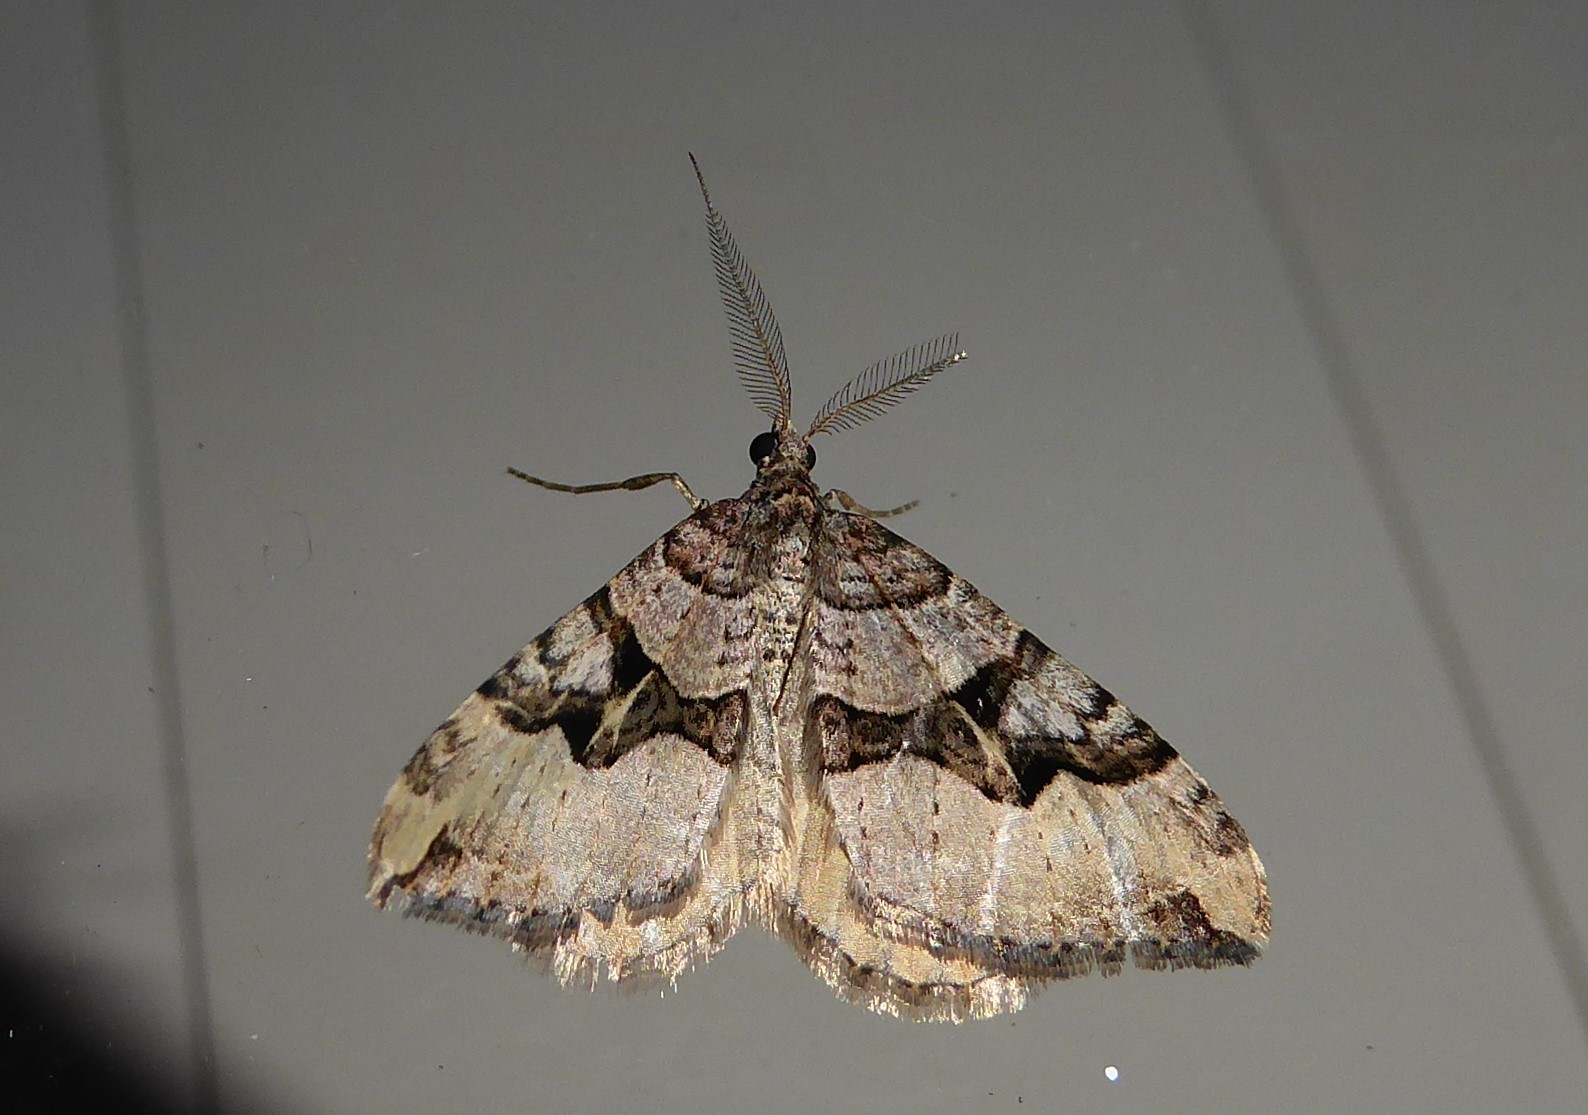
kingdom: Animalia
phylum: Arthropoda
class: Insecta
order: Lepidoptera
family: Geometridae
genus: Xanthorhoe
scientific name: Xanthorhoe semifissata
